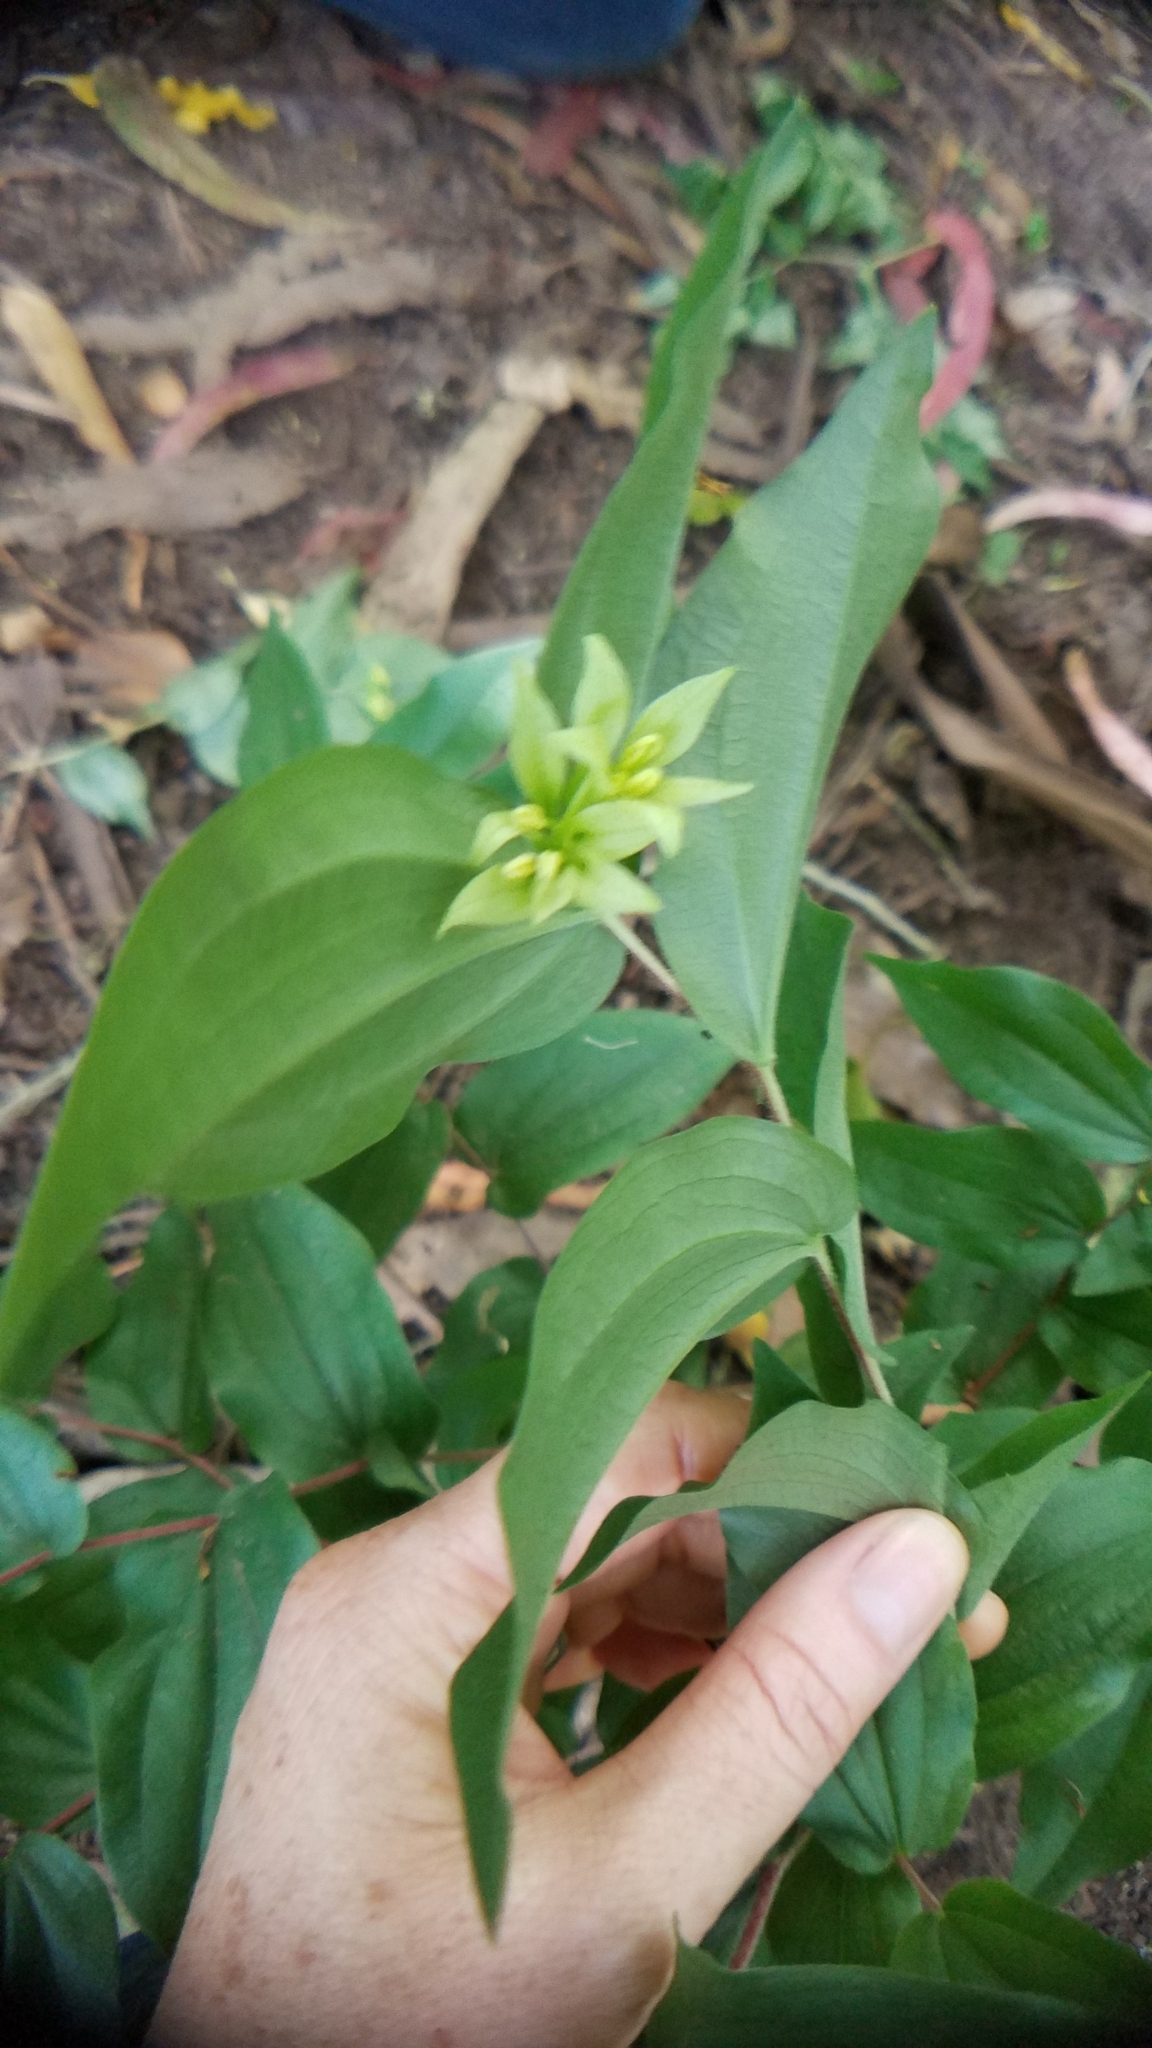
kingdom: Plantae
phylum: Tracheophyta
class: Liliopsida
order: Liliales
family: Liliaceae
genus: Prosartes
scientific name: Prosartes hookeri
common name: Fairy-bells
